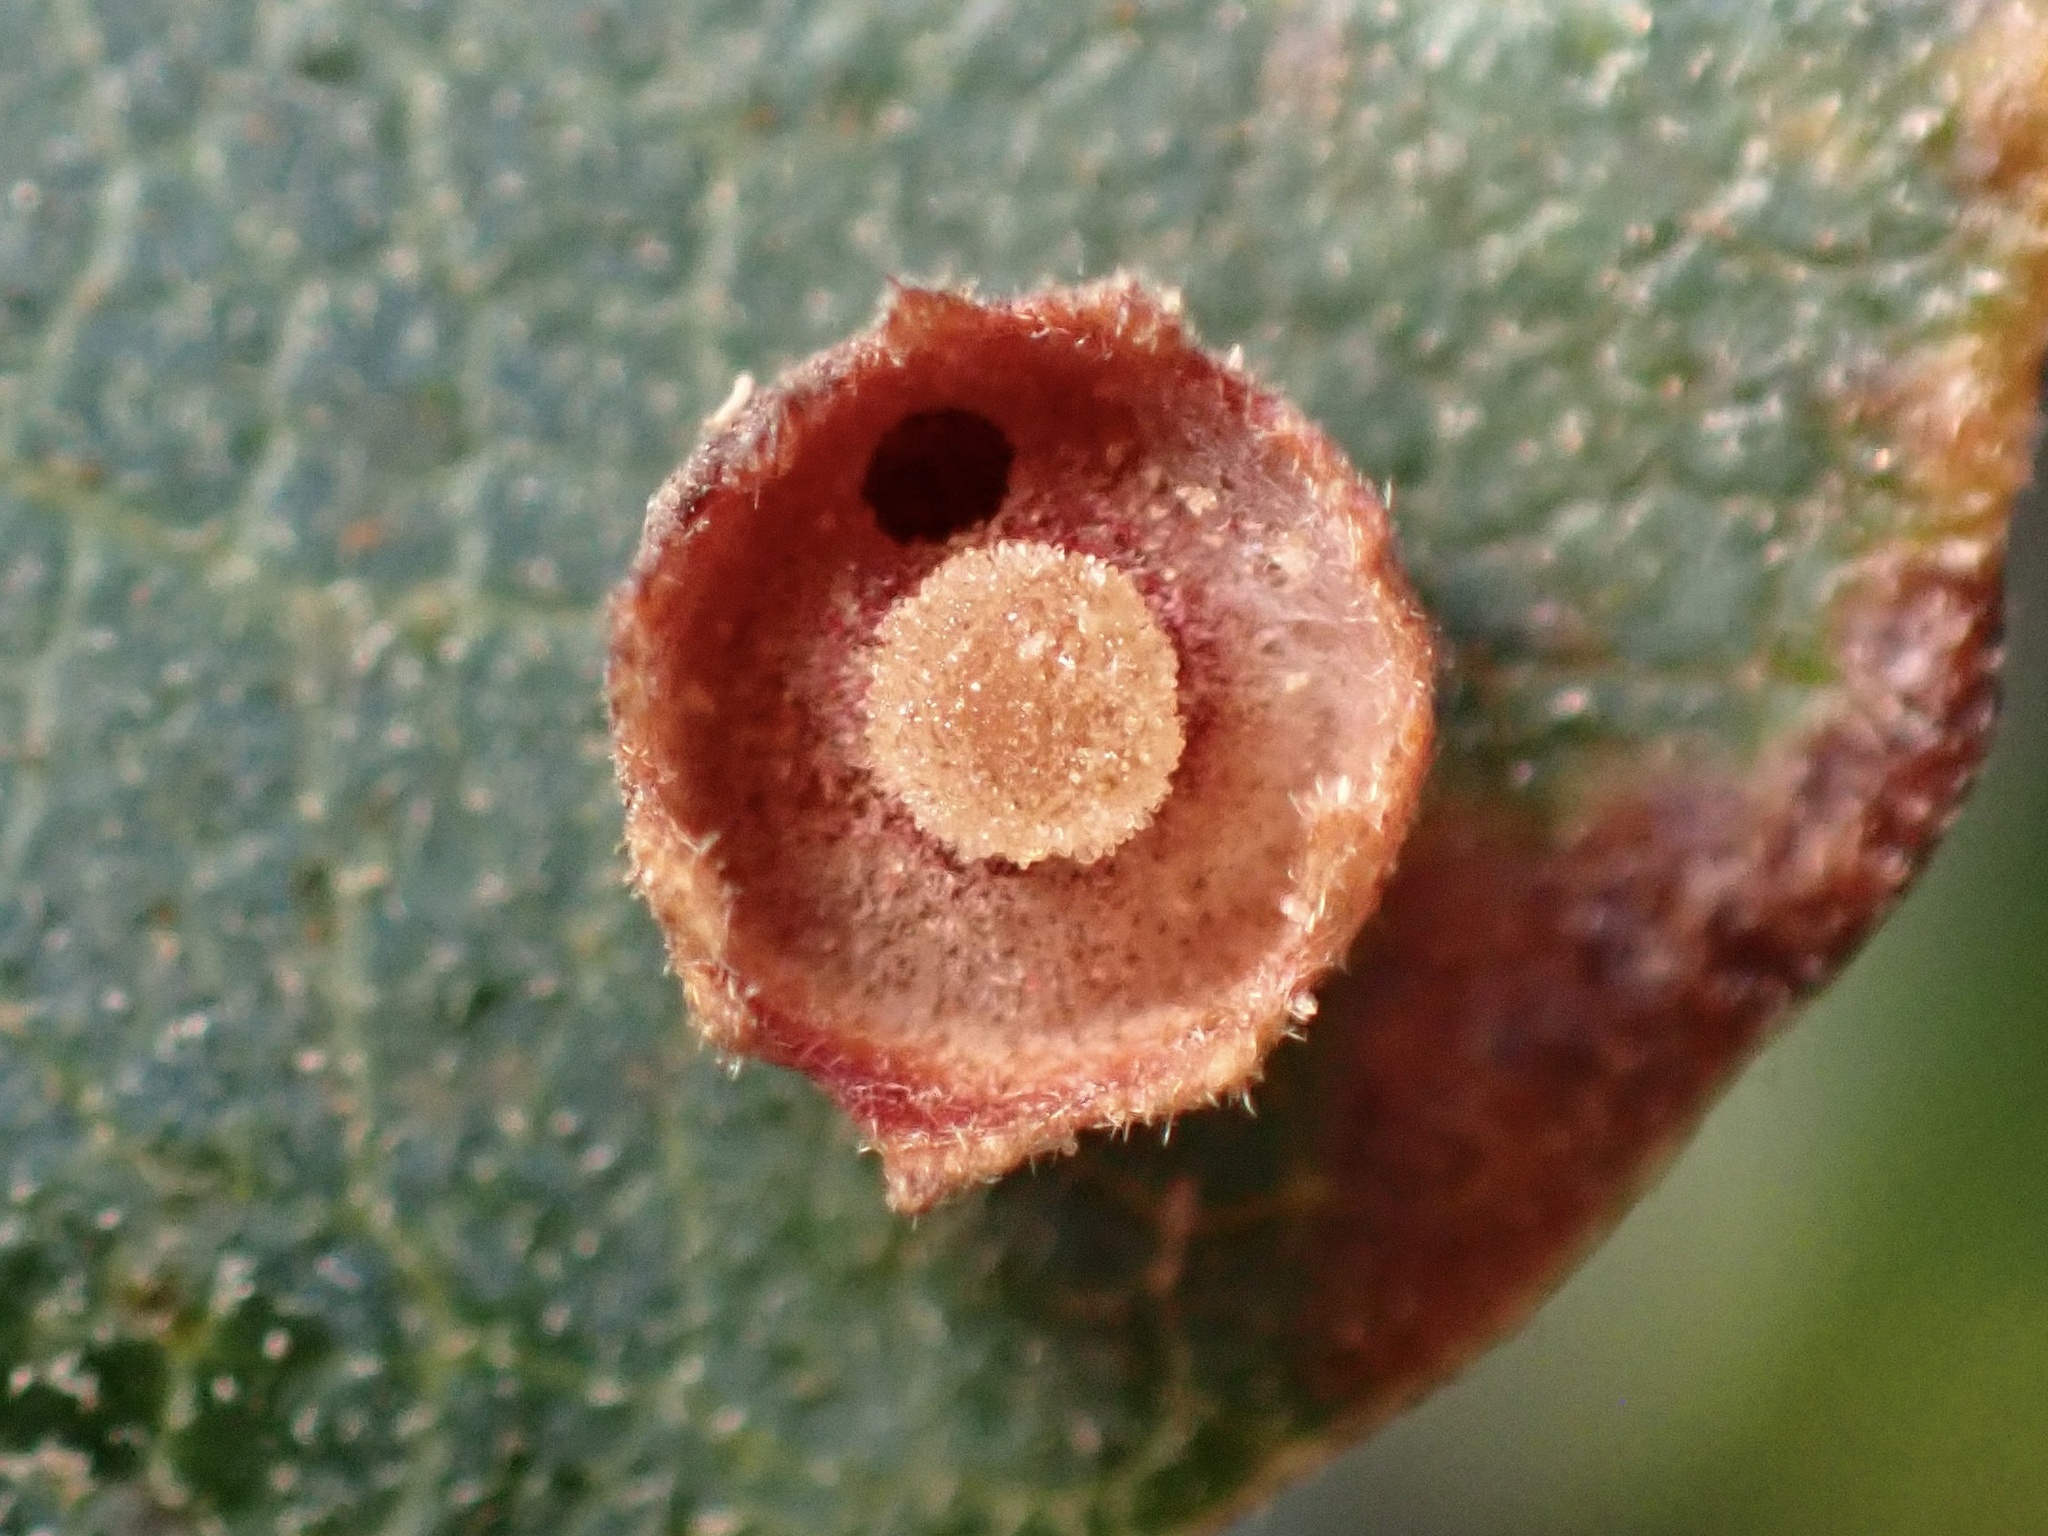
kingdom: Animalia
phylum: Arthropoda
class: Insecta
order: Hymenoptera
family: Cynipidae
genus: Andricus
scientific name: Andricus
